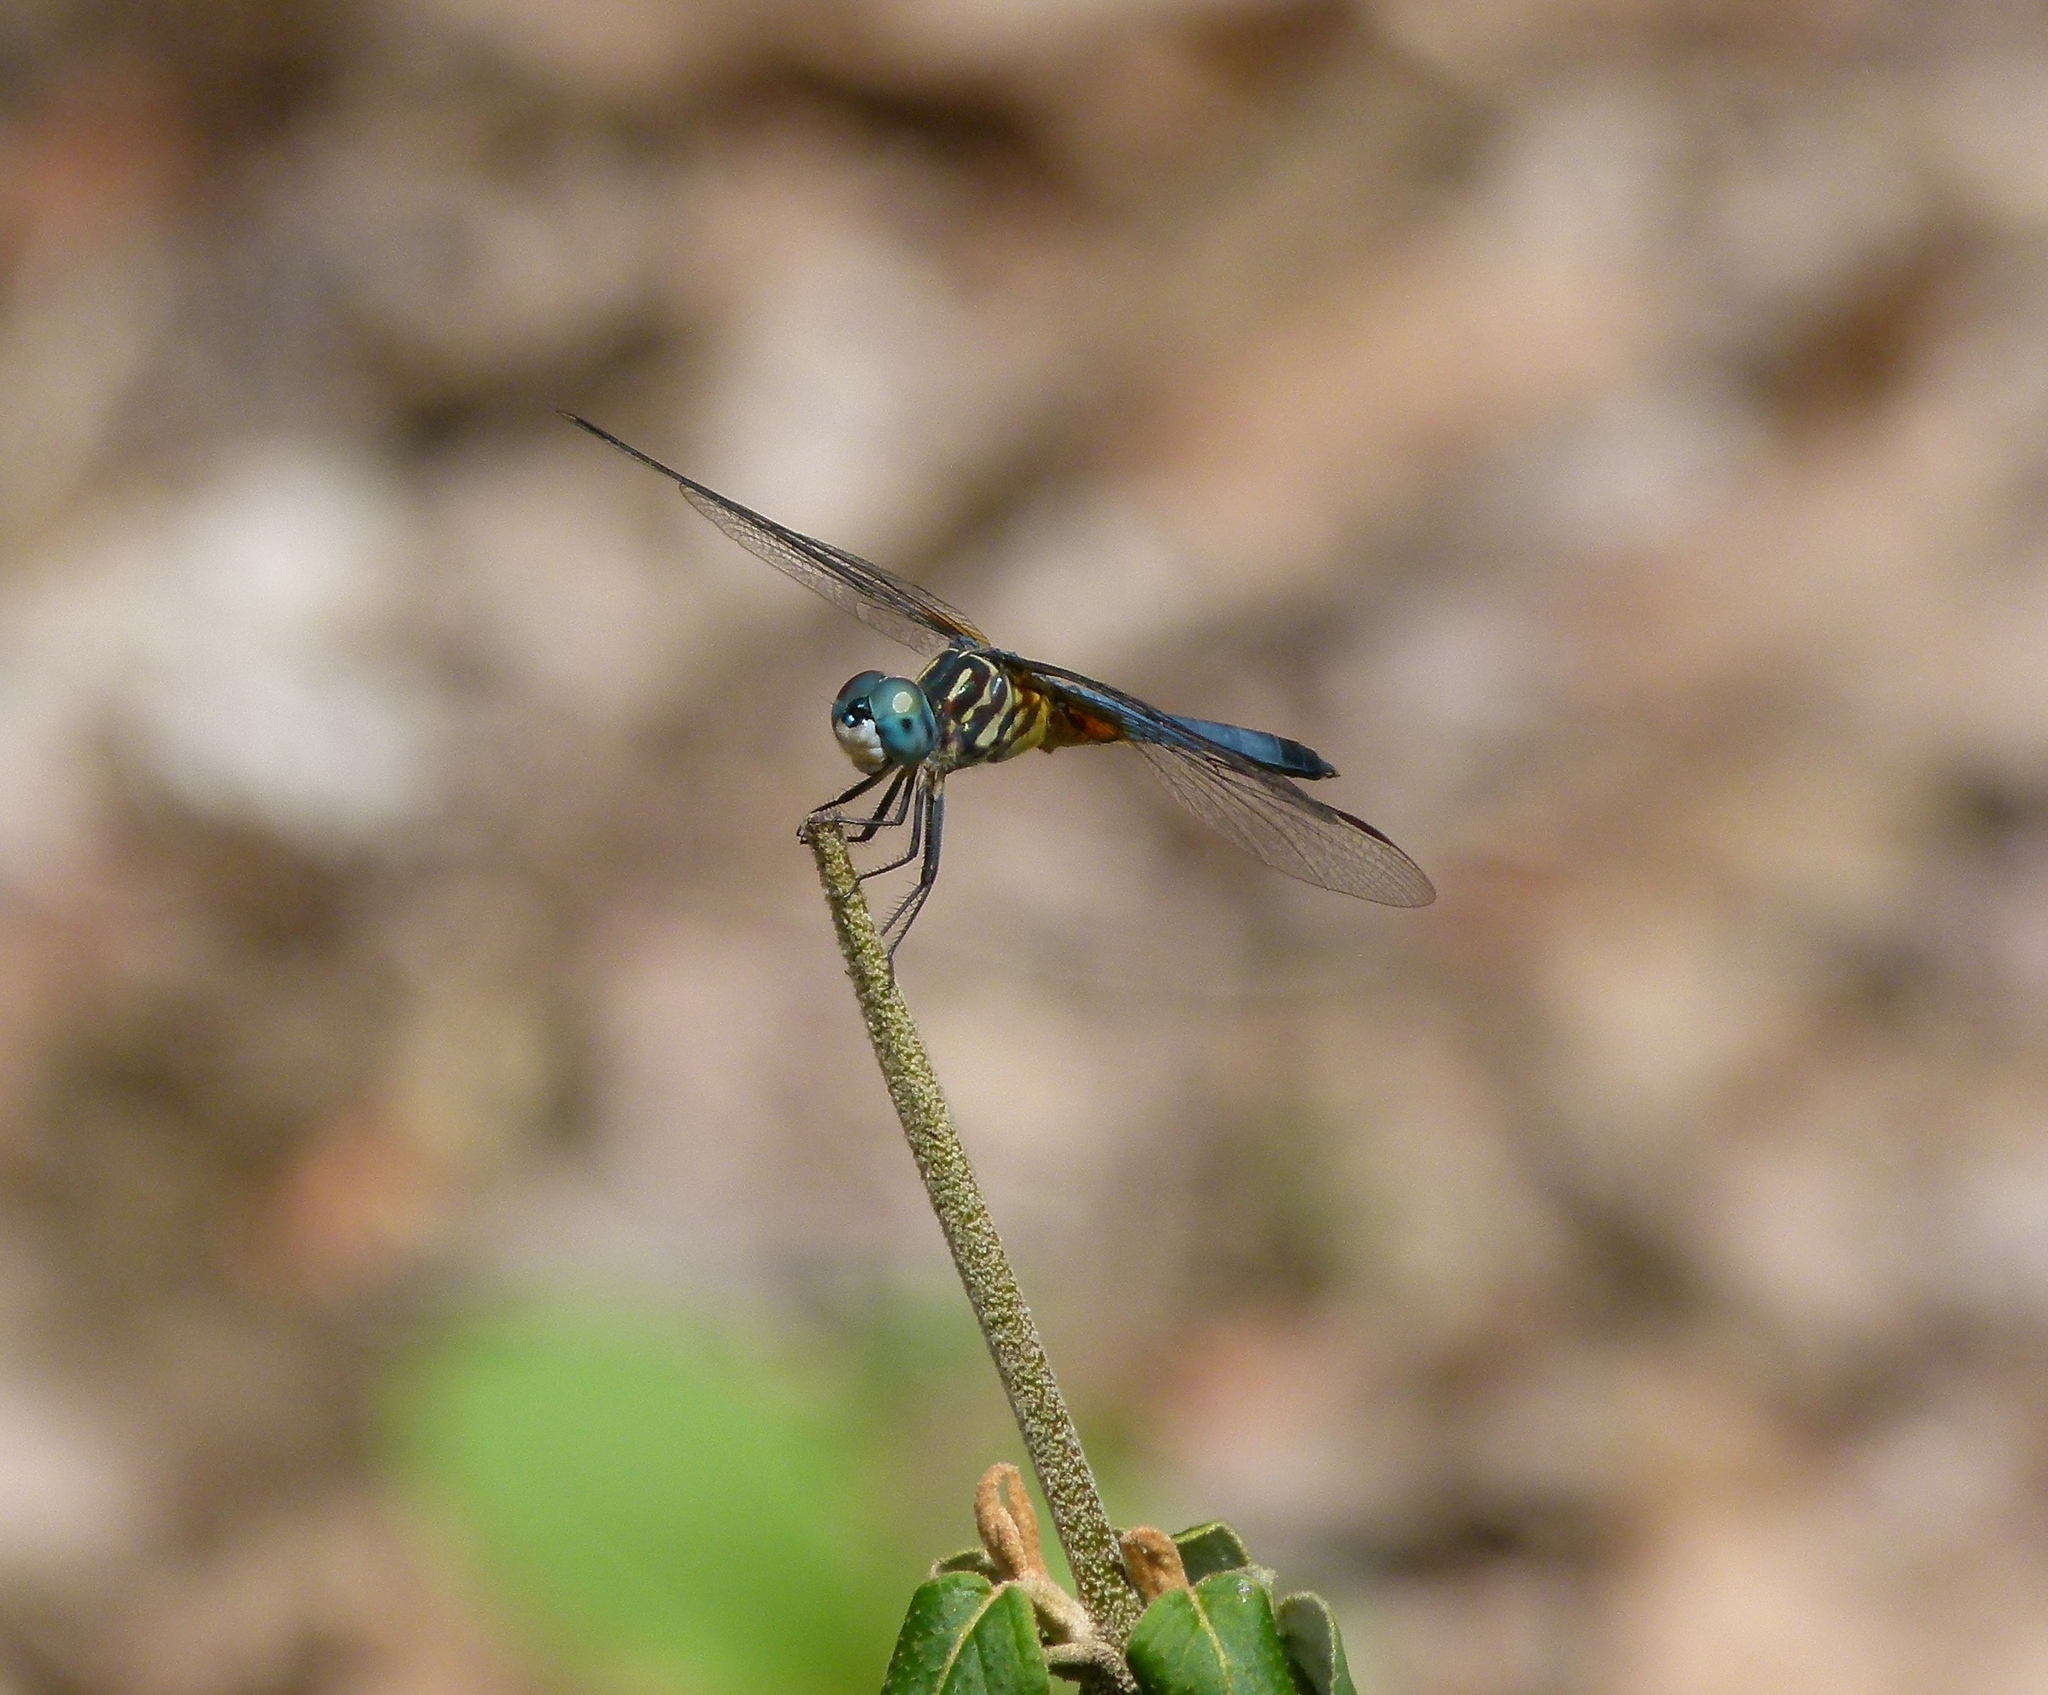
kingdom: Animalia
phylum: Arthropoda
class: Insecta
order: Odonata
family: Libellulidae
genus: Pachydiplax
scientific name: Pachydiplax longipennis
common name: Blue dasher
